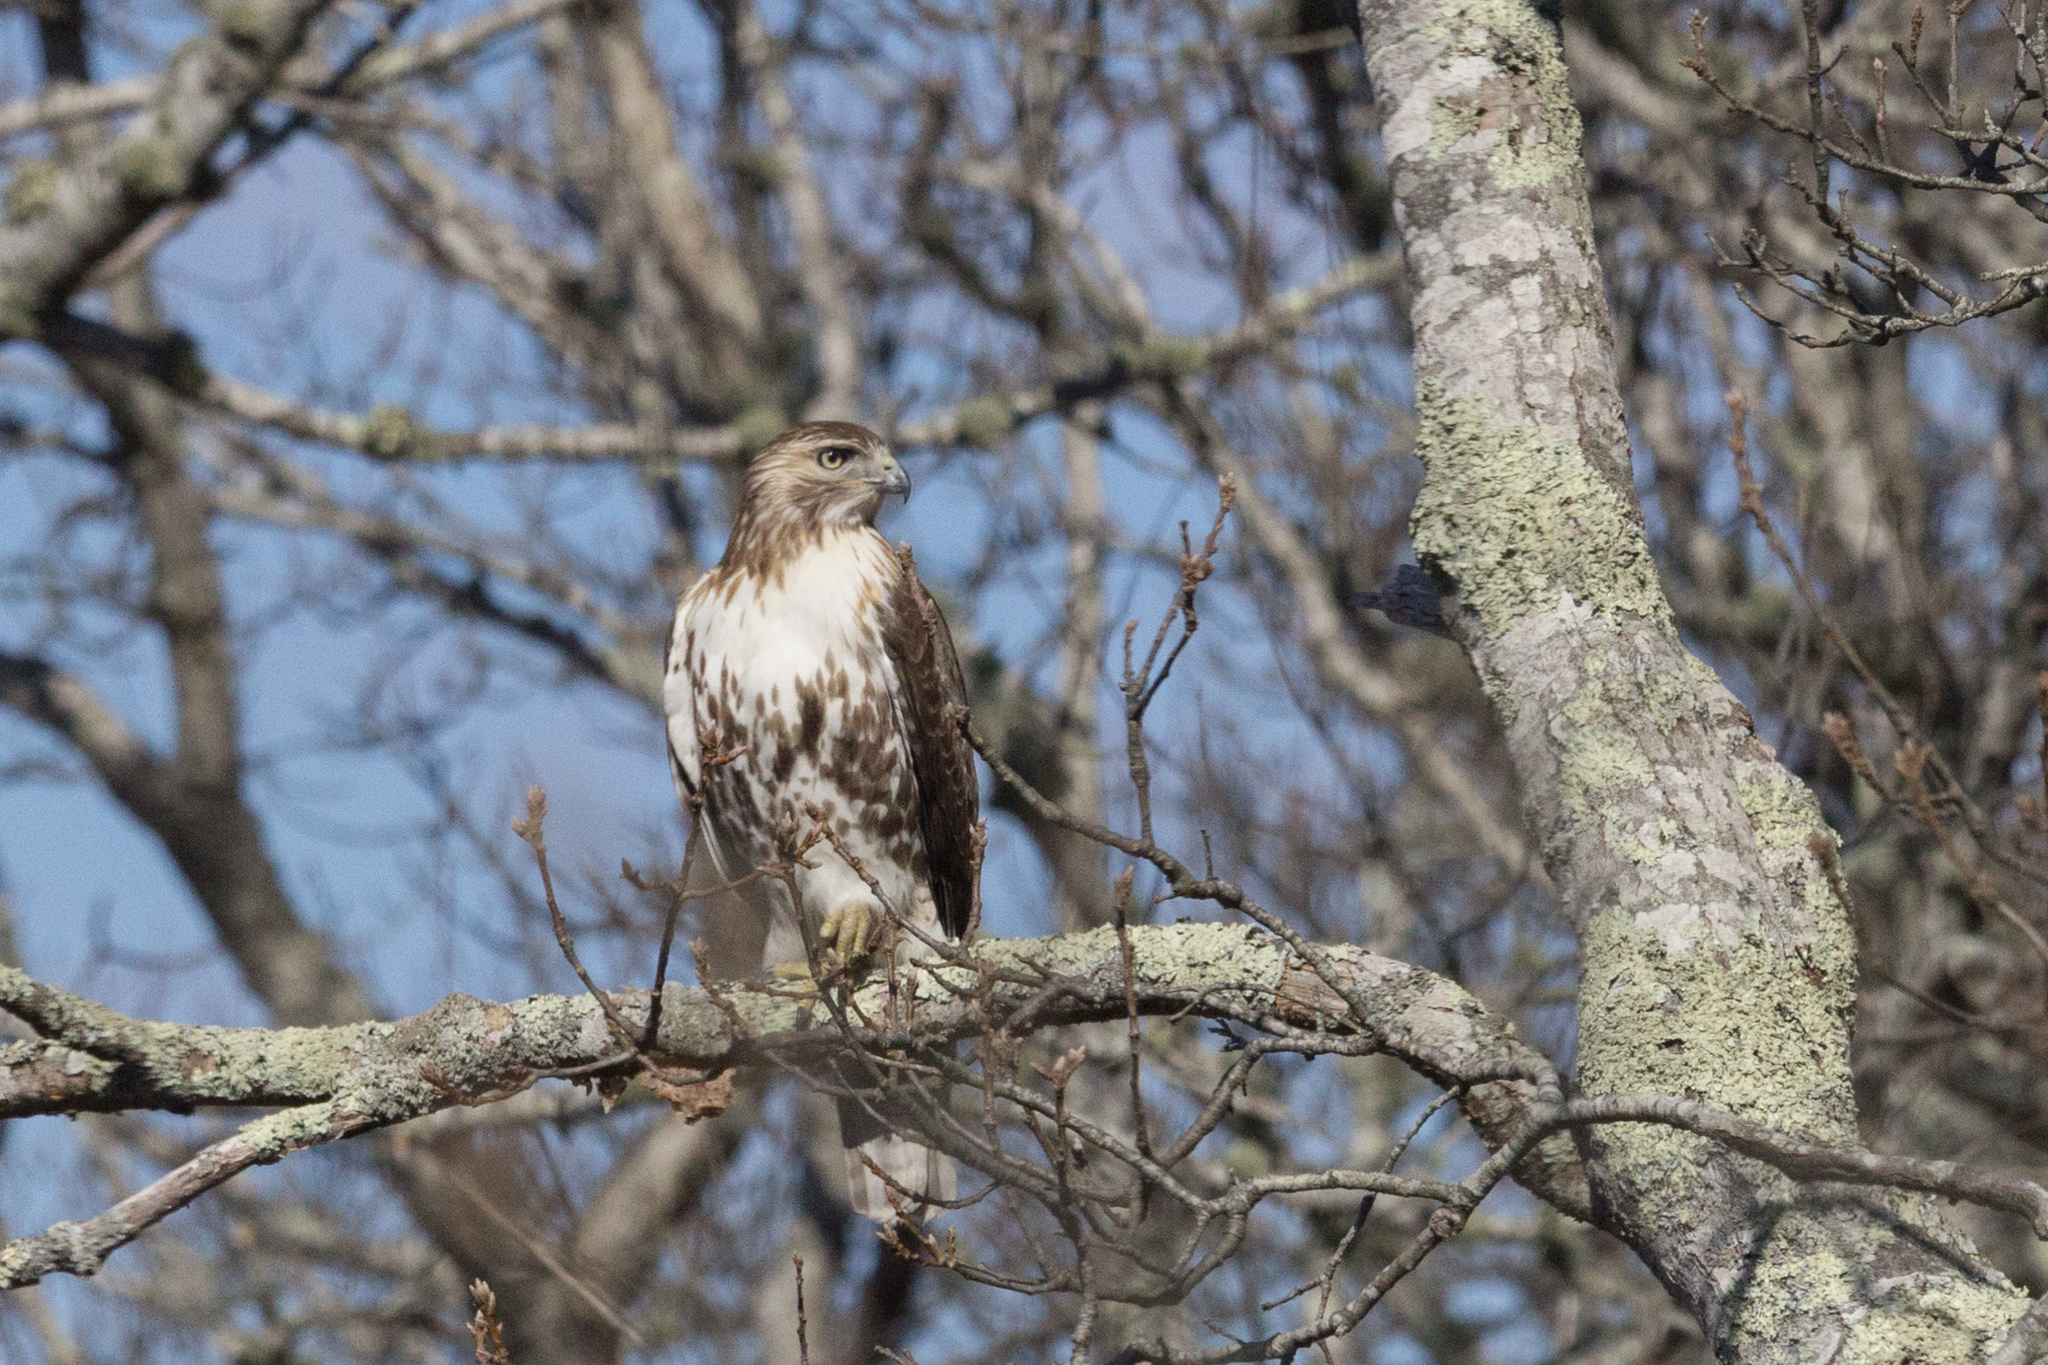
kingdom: Animalia
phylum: Chordata
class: Aves
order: Accipitriformes
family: Accipitridae
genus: Buteo
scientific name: Buteo jamaicensis
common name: Red-tailed hawk
